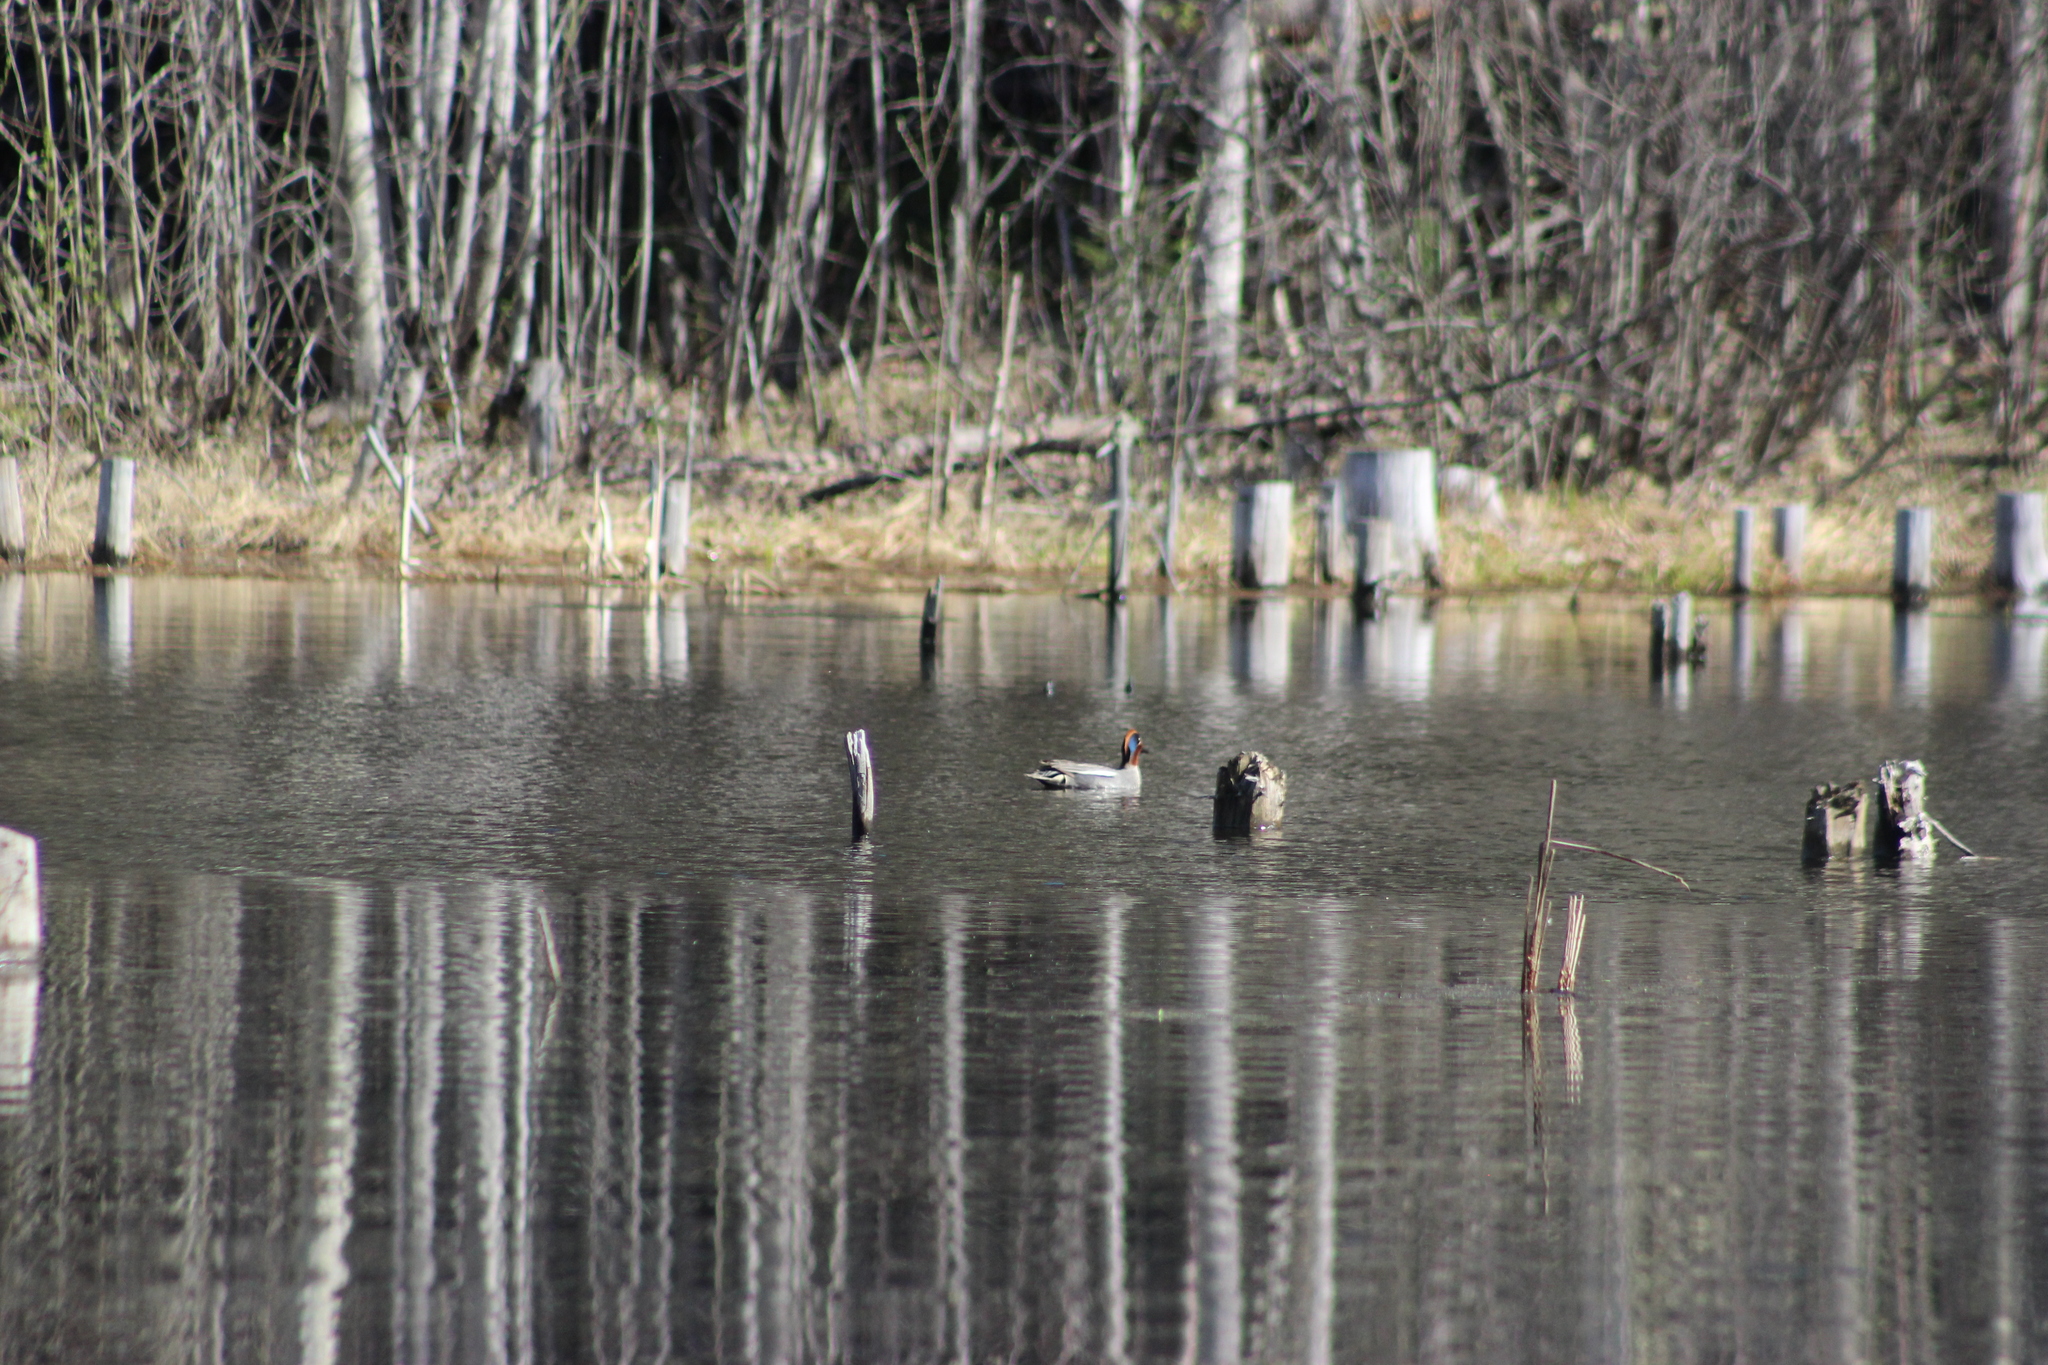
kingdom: Animalia
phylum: Chordata
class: Aves
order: Anseriformes
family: Anatidae
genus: Anas
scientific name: Anas crecca
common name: Eurasian teal
